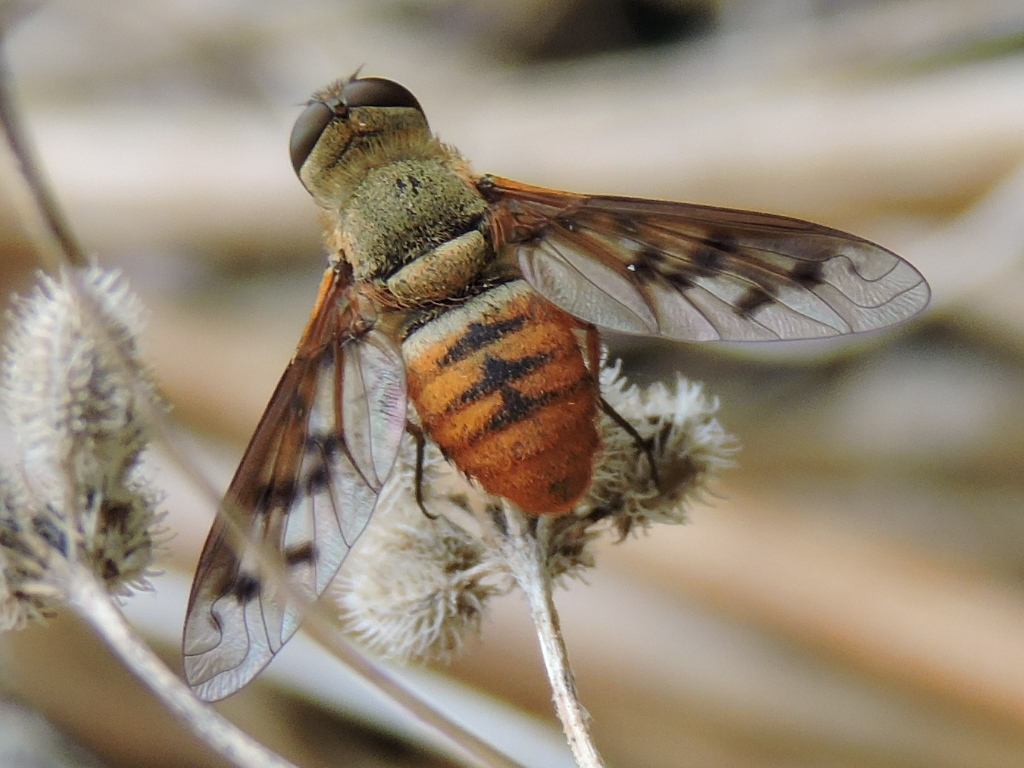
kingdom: Animalia
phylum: Arthropoda
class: Insecta
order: Diptera
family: Bombyliidae
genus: Neodiplocampta
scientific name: Neodiplocampta miranda
